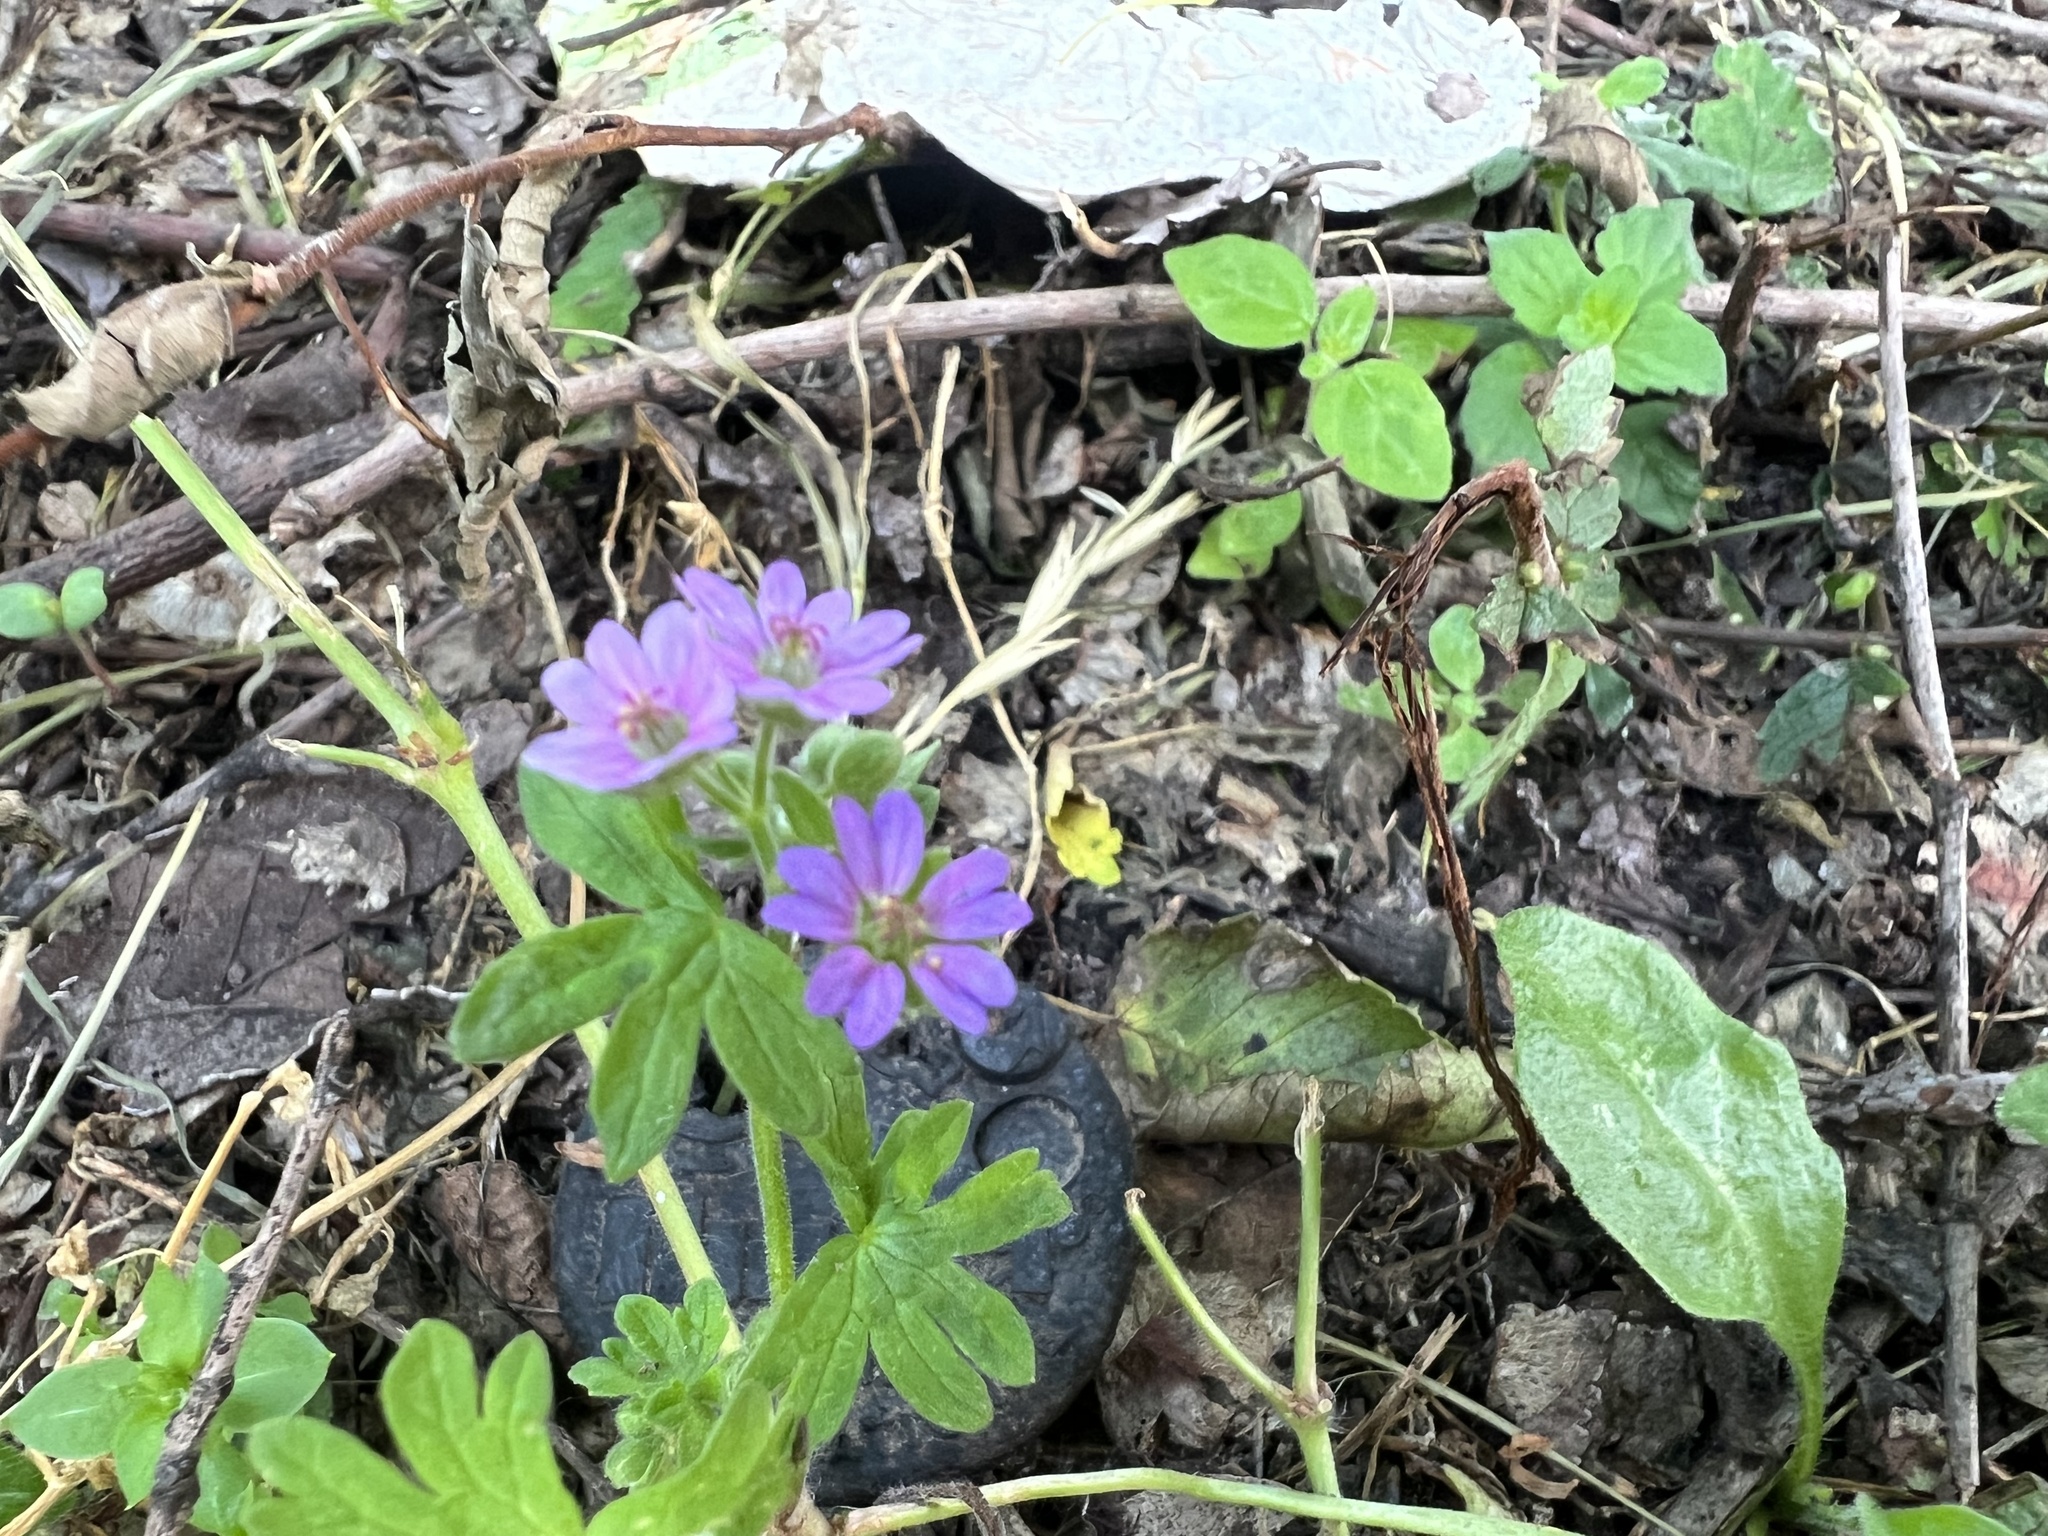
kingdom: Plantae
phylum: Tracheophyta
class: Magnoliopsida
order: Geraniales
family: Geraniaceae
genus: Geranium
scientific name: Geranium molle
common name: Dove's-foot crane's-bill
